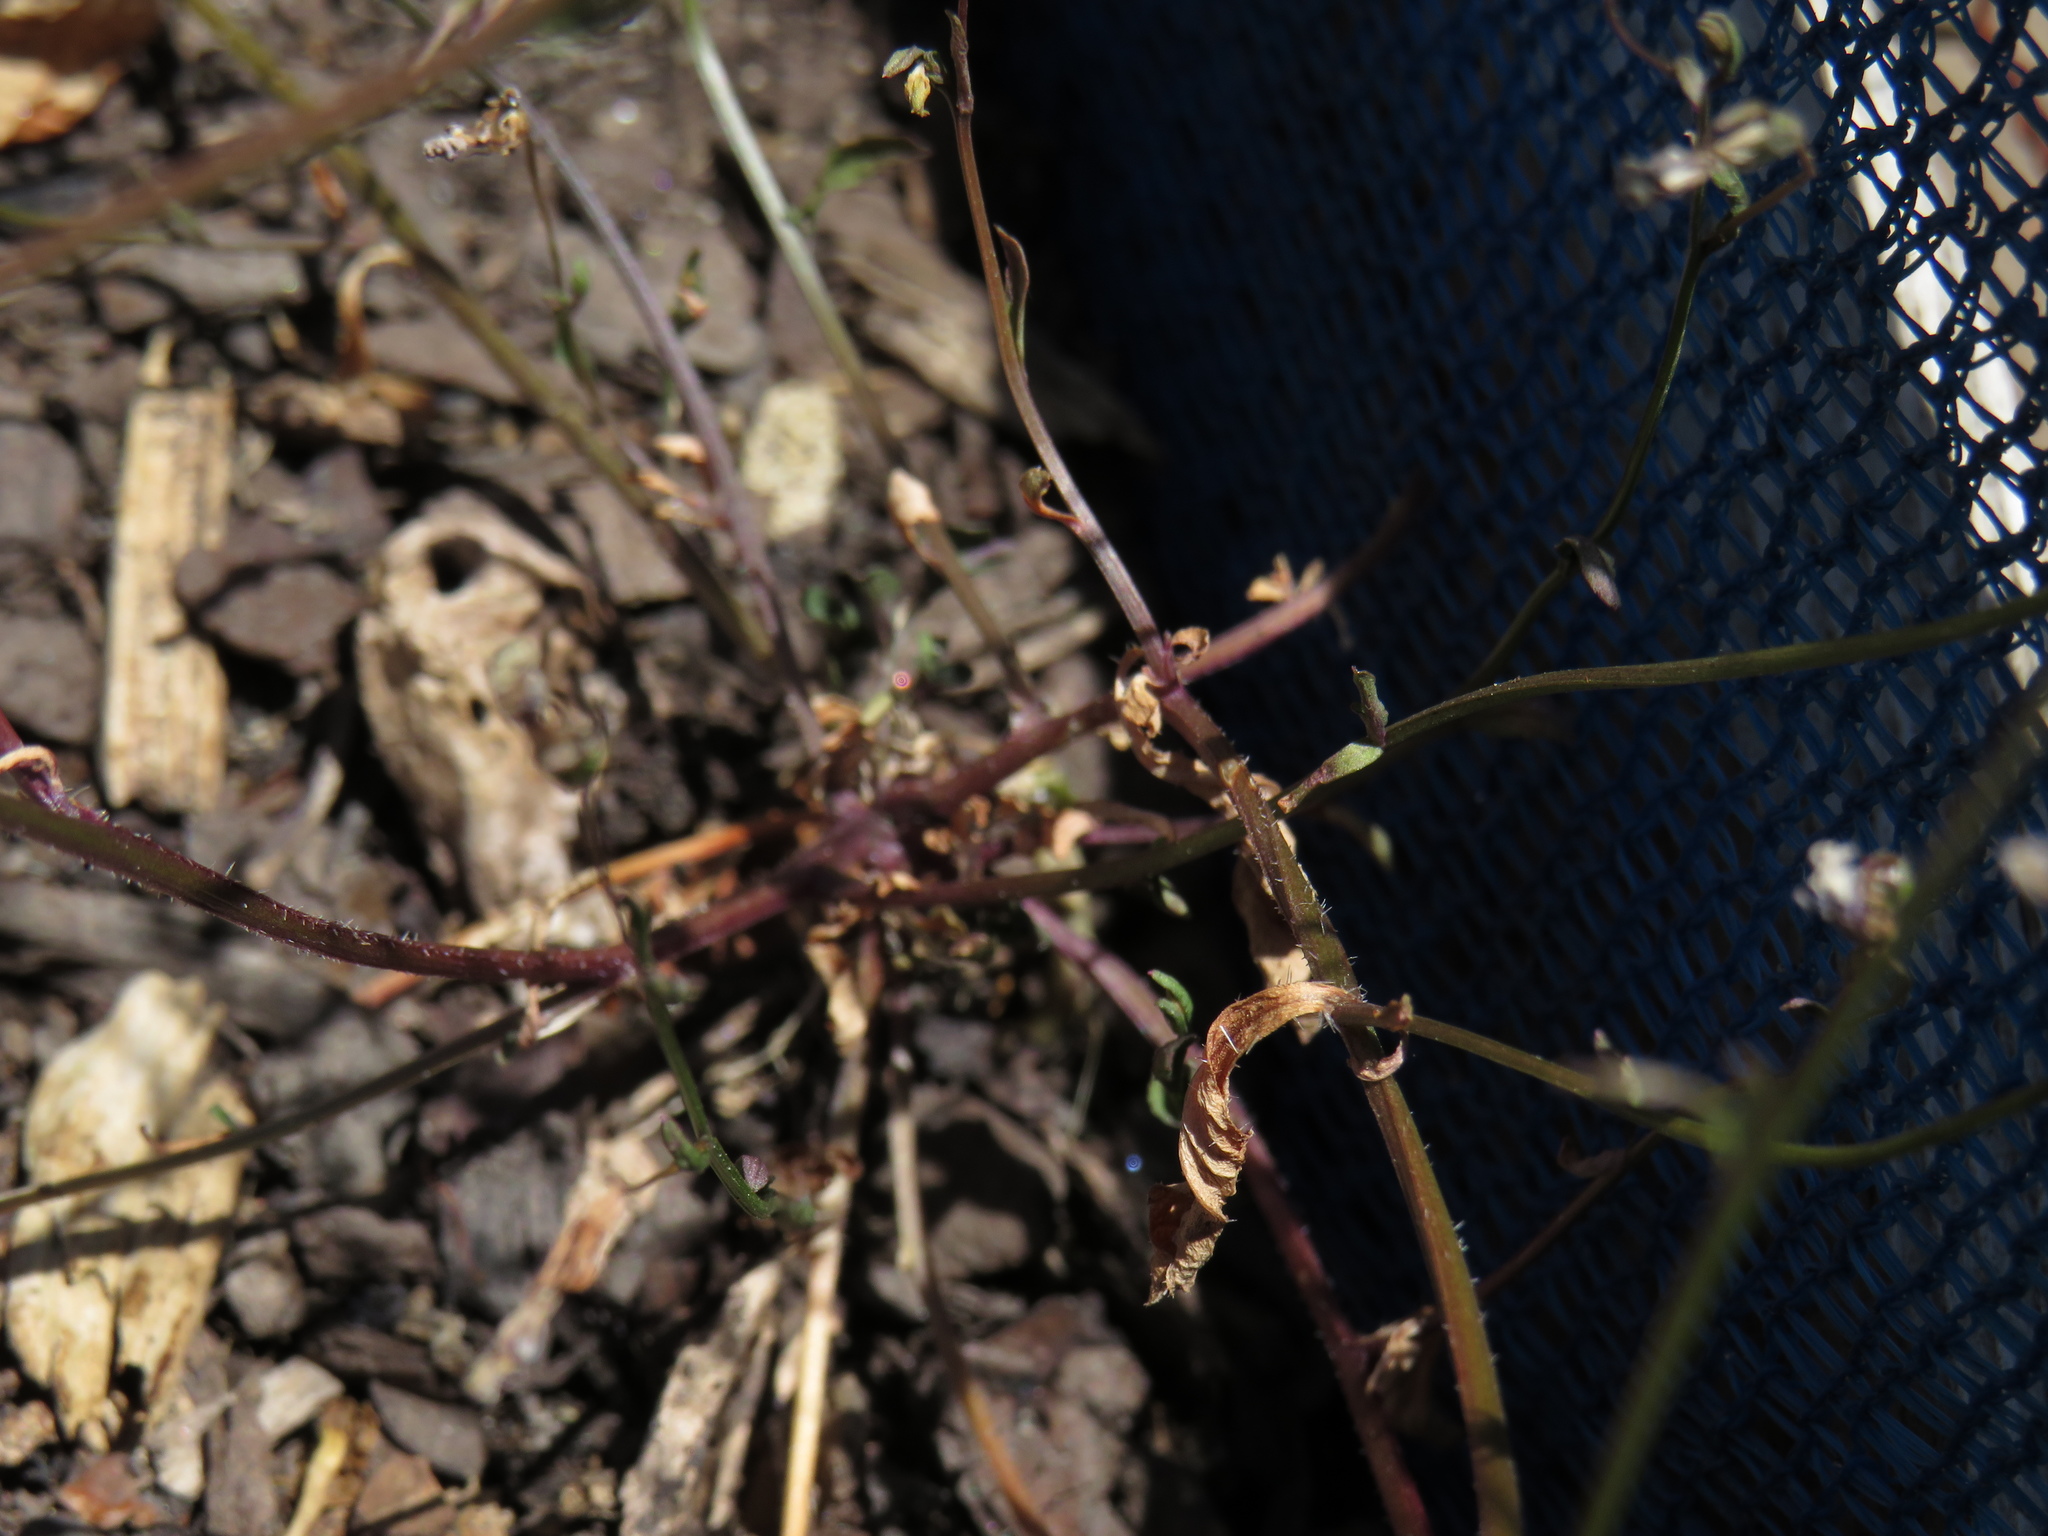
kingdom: Plantae
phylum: Tracheophyta
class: Magnoliopsida
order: Asterales
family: Campanulaceae
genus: Lobelia
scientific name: Lobelia erinus
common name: Edging lobelia
